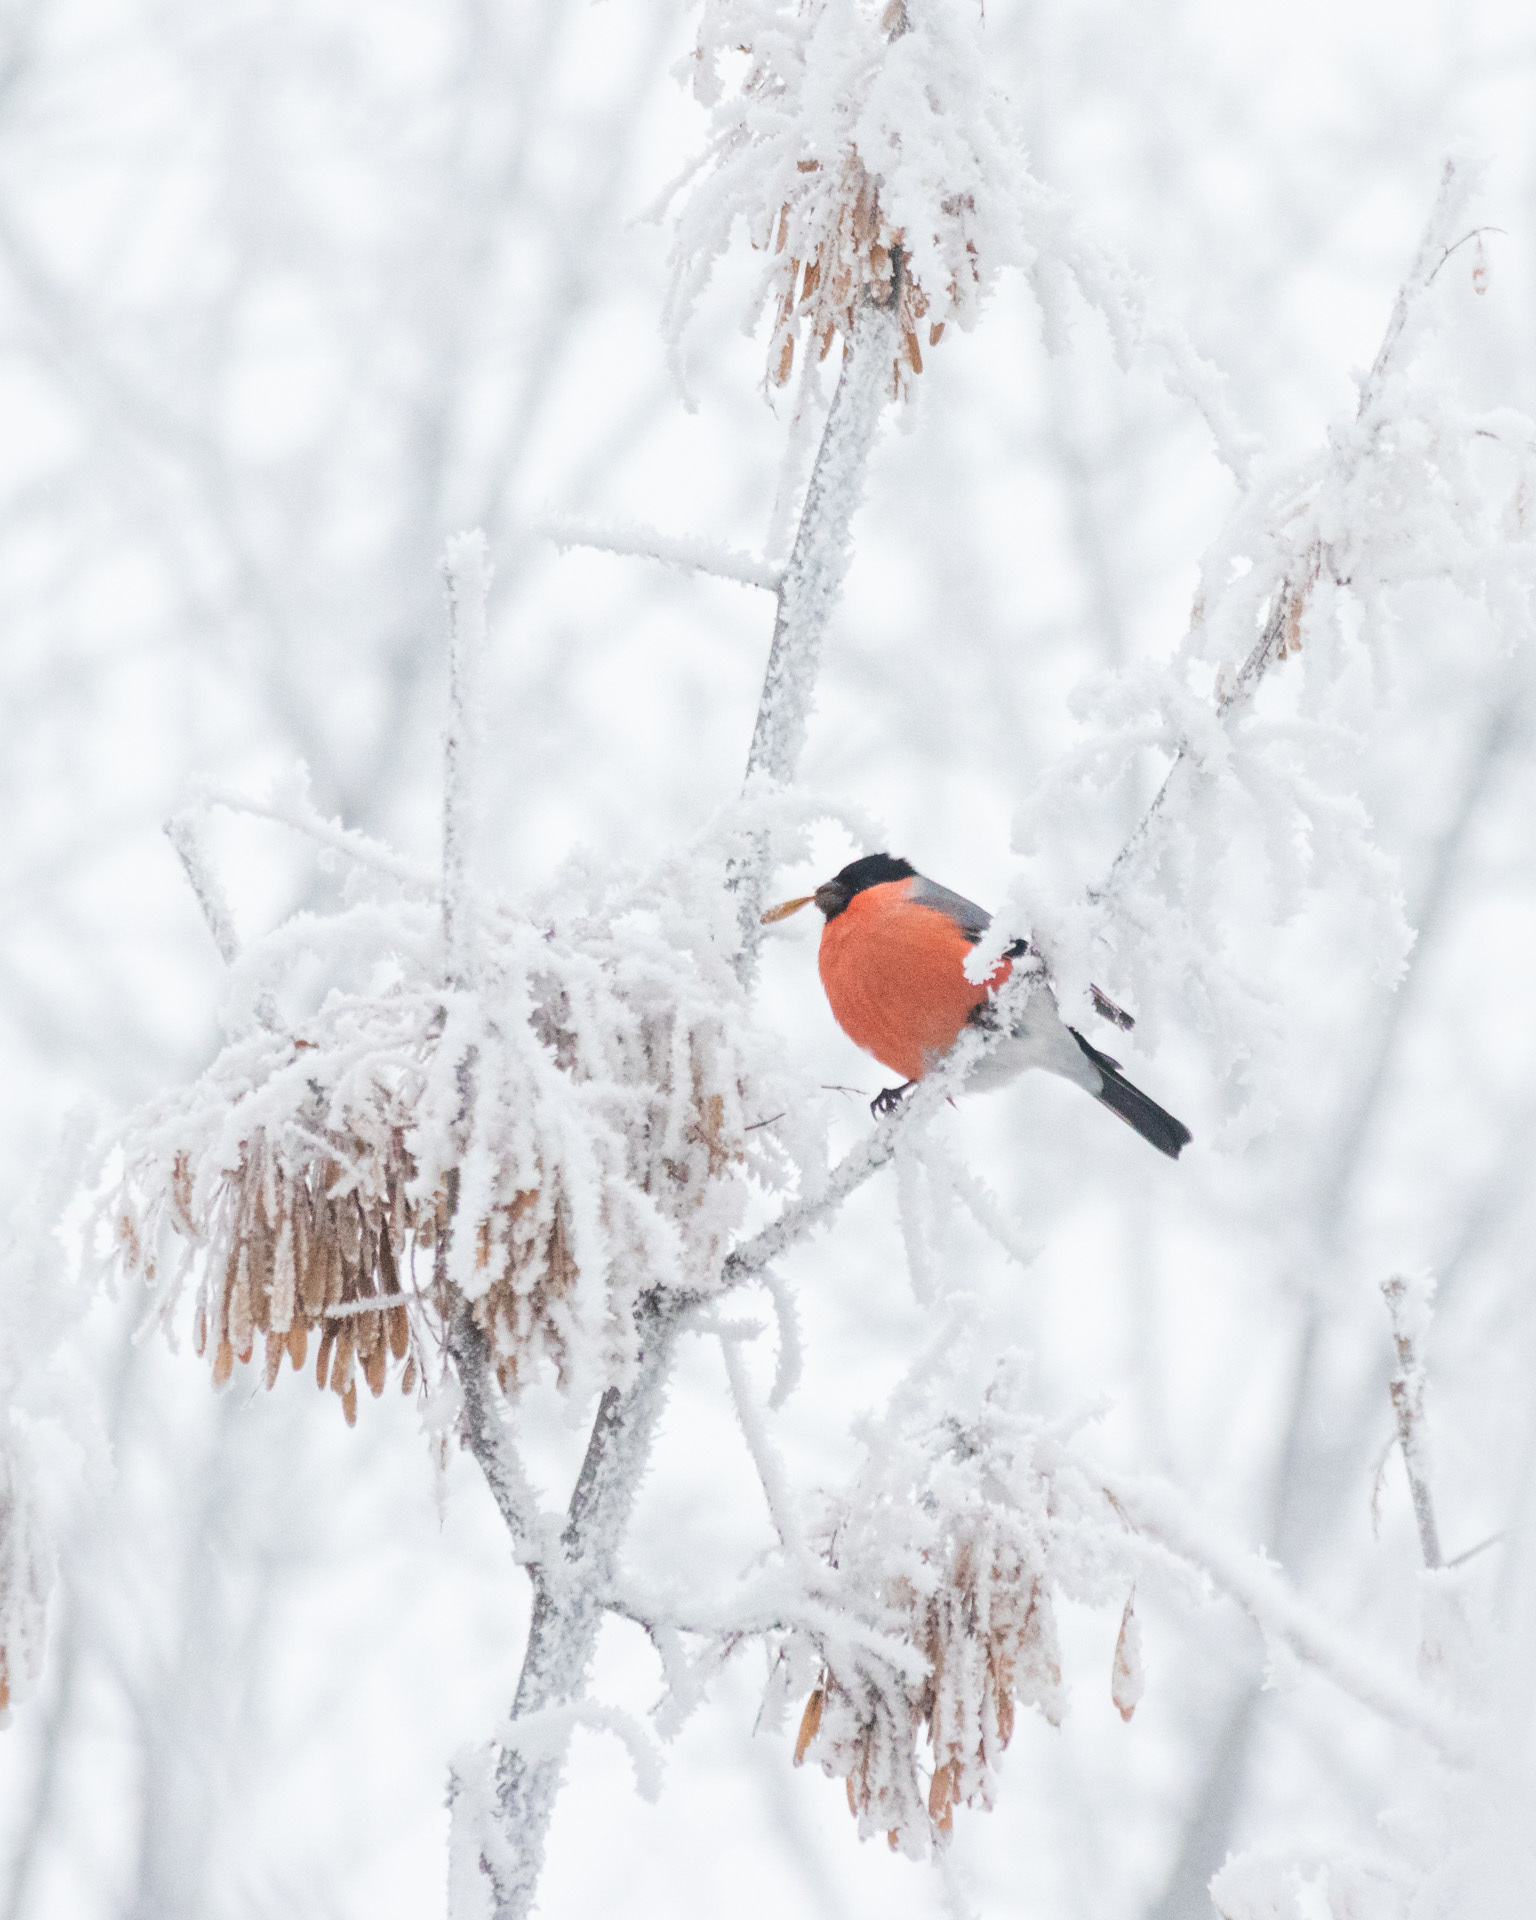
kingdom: Animalia
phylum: Chordata
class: Aves
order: Passeriformes
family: Fringillidae
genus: Pyrrhula
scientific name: Pyrrhula pyrrhula
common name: Eurasian bullfinch
